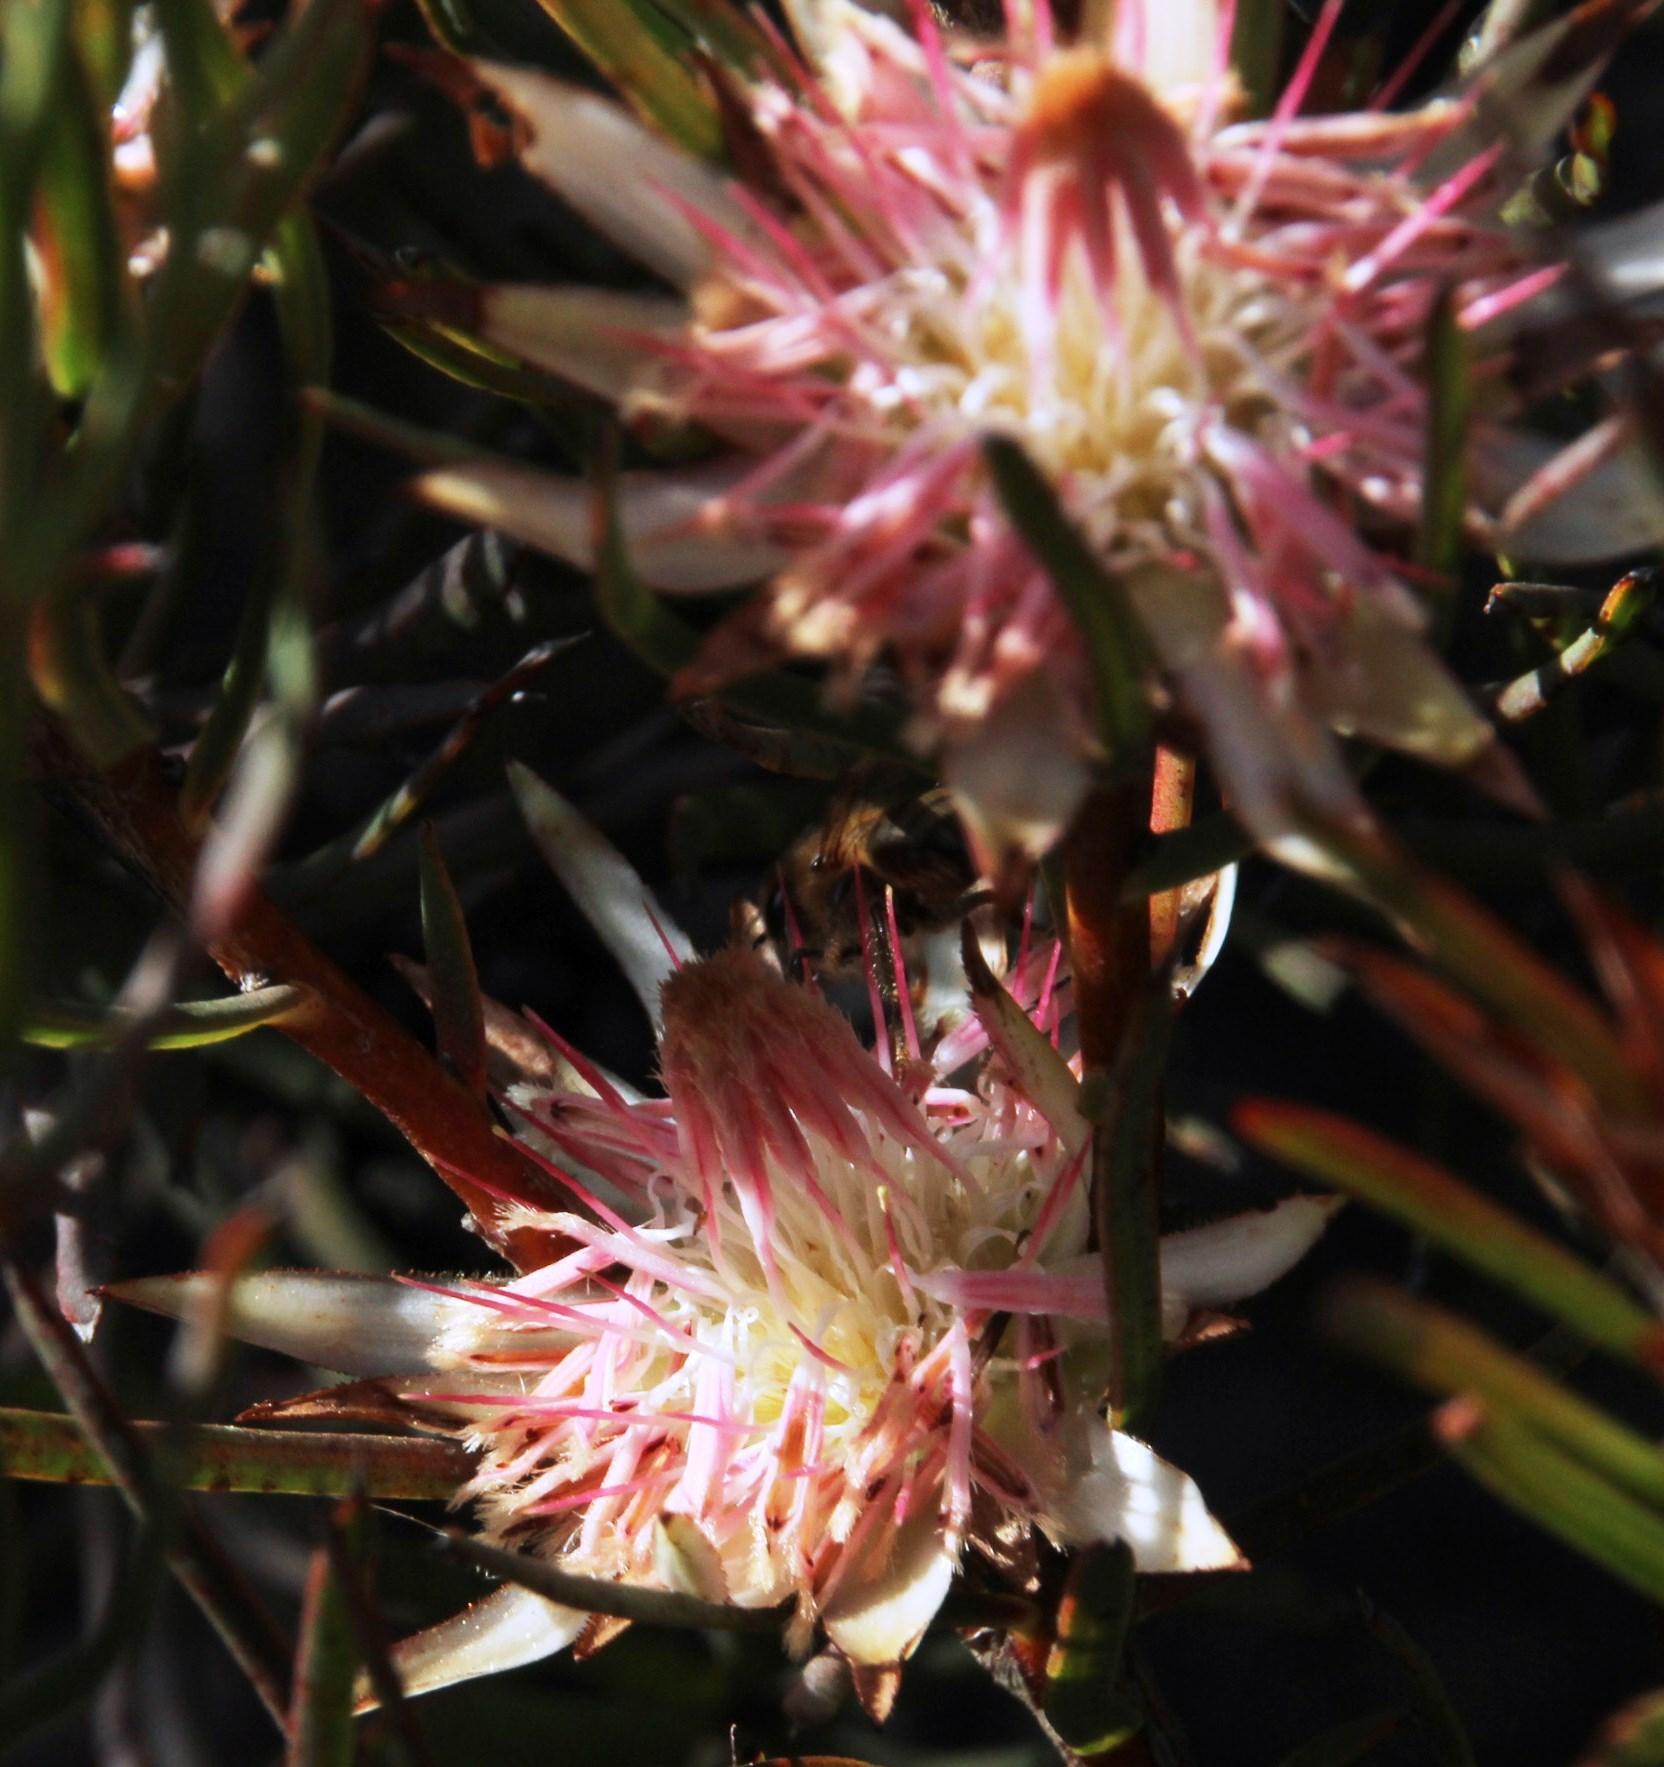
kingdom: Animalia
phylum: Arthropoda
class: Insecta
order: Hymenoptera
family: Apidae
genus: Apis
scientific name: Apis mellifera
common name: Honey bee
